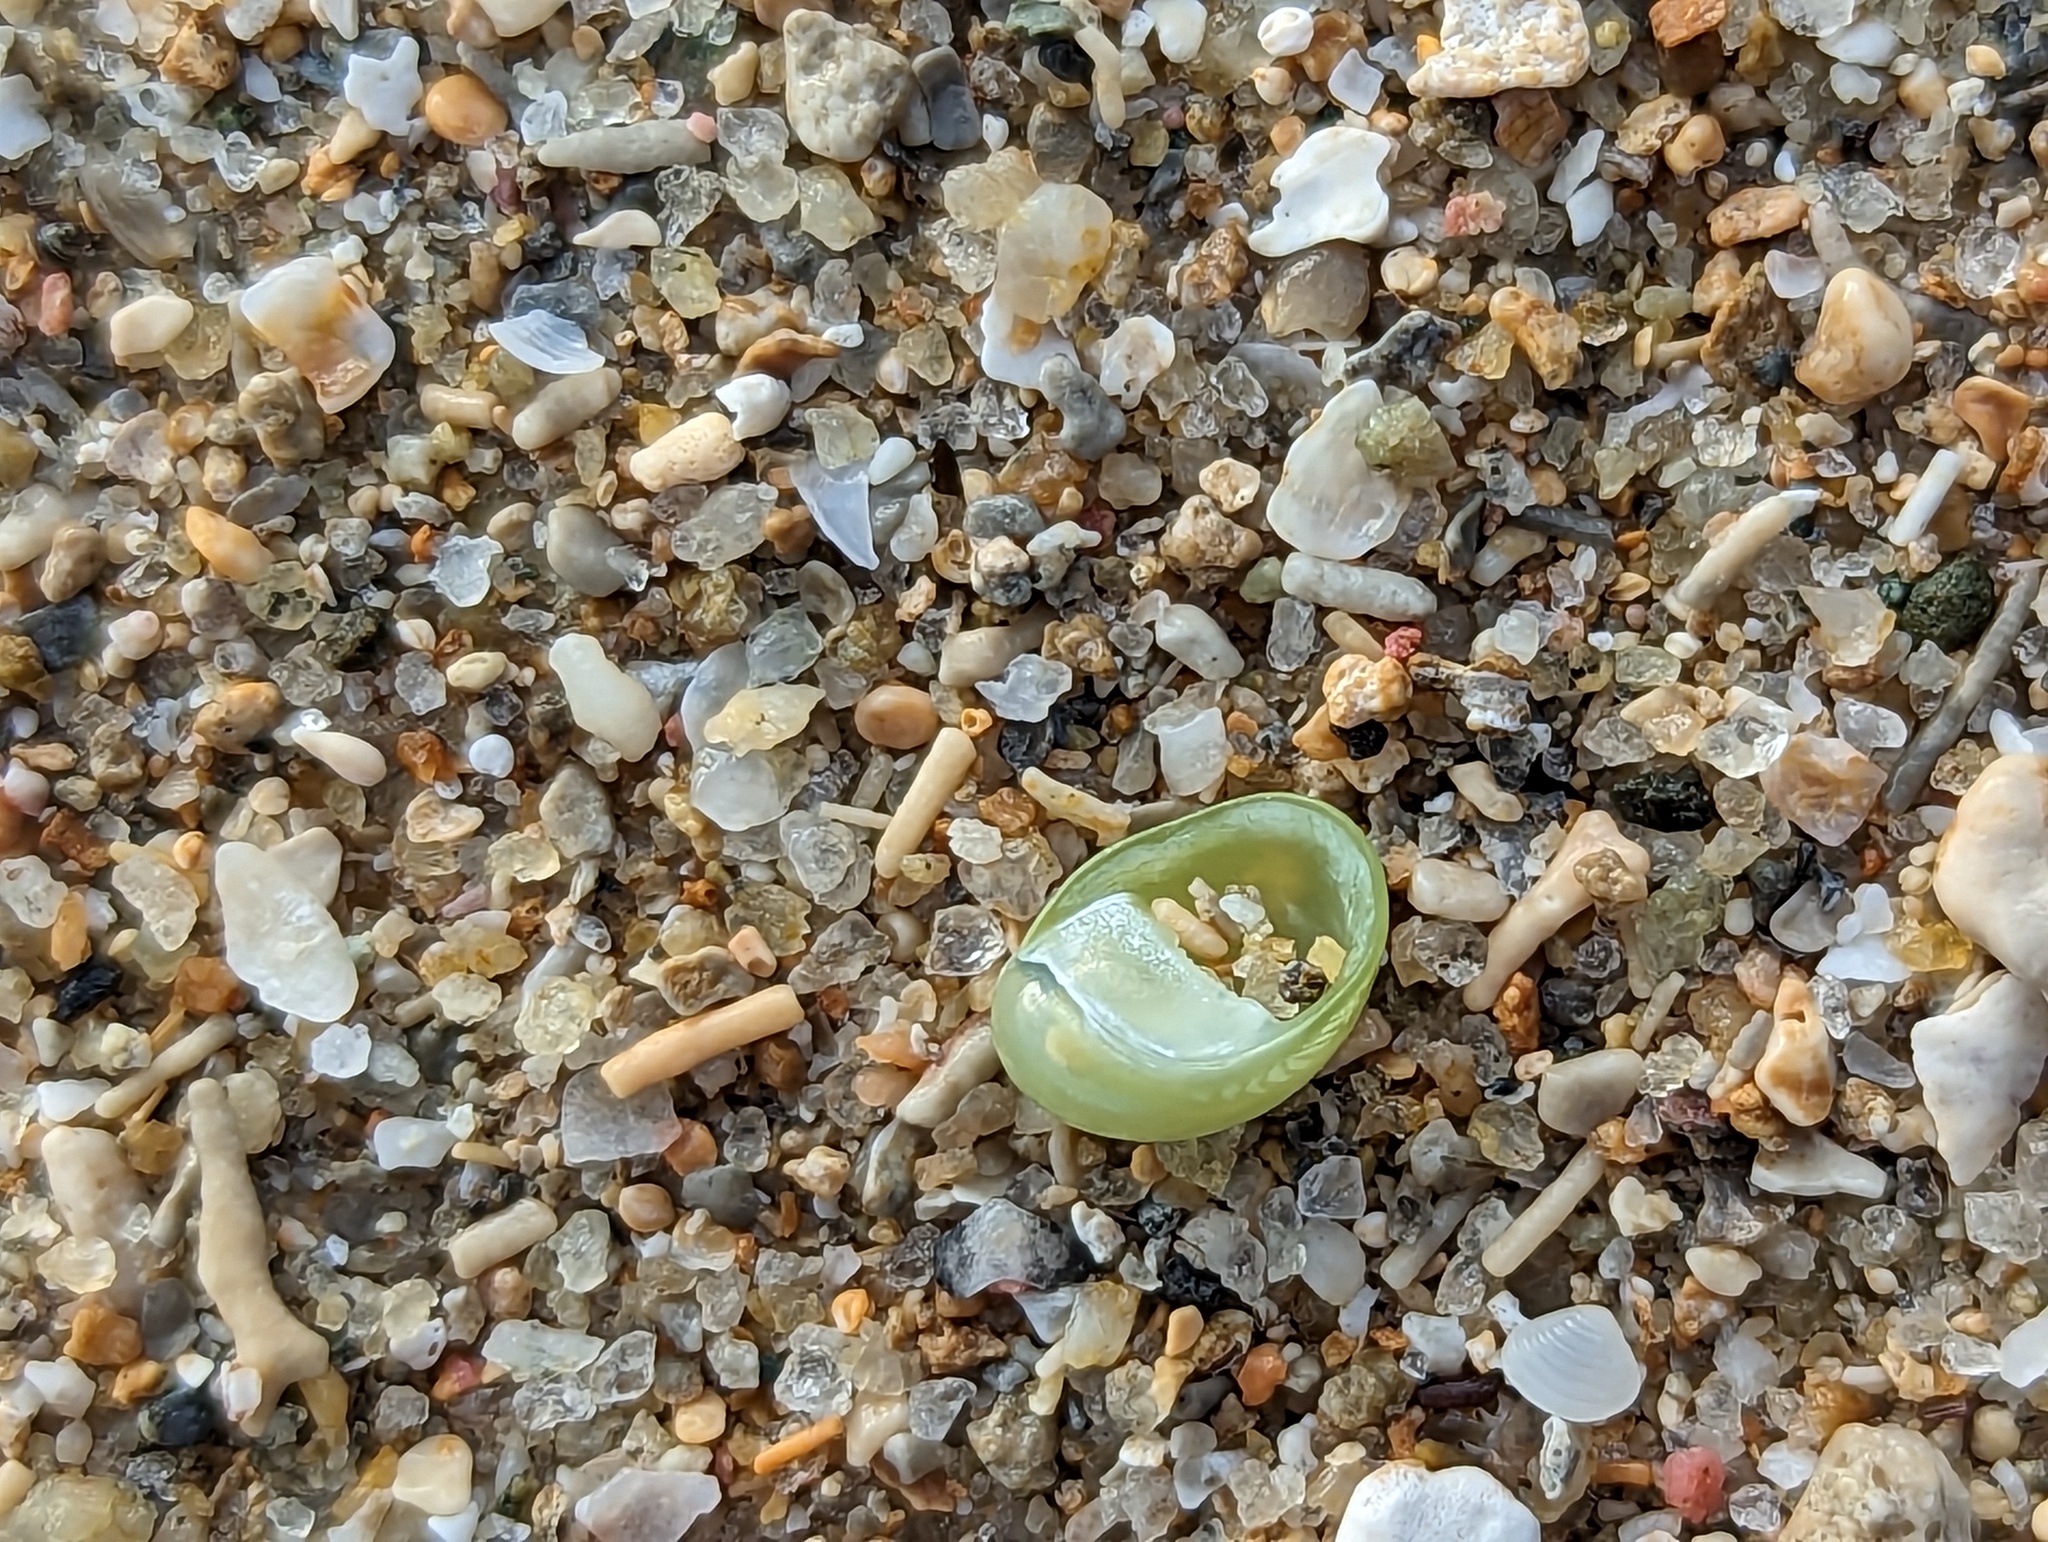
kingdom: Animalia
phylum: Mollusca
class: Gastropoda
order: Cycloneritida
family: Neritidae
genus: Smaragdia
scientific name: Smaragdia viridis
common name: Emerald nerite
